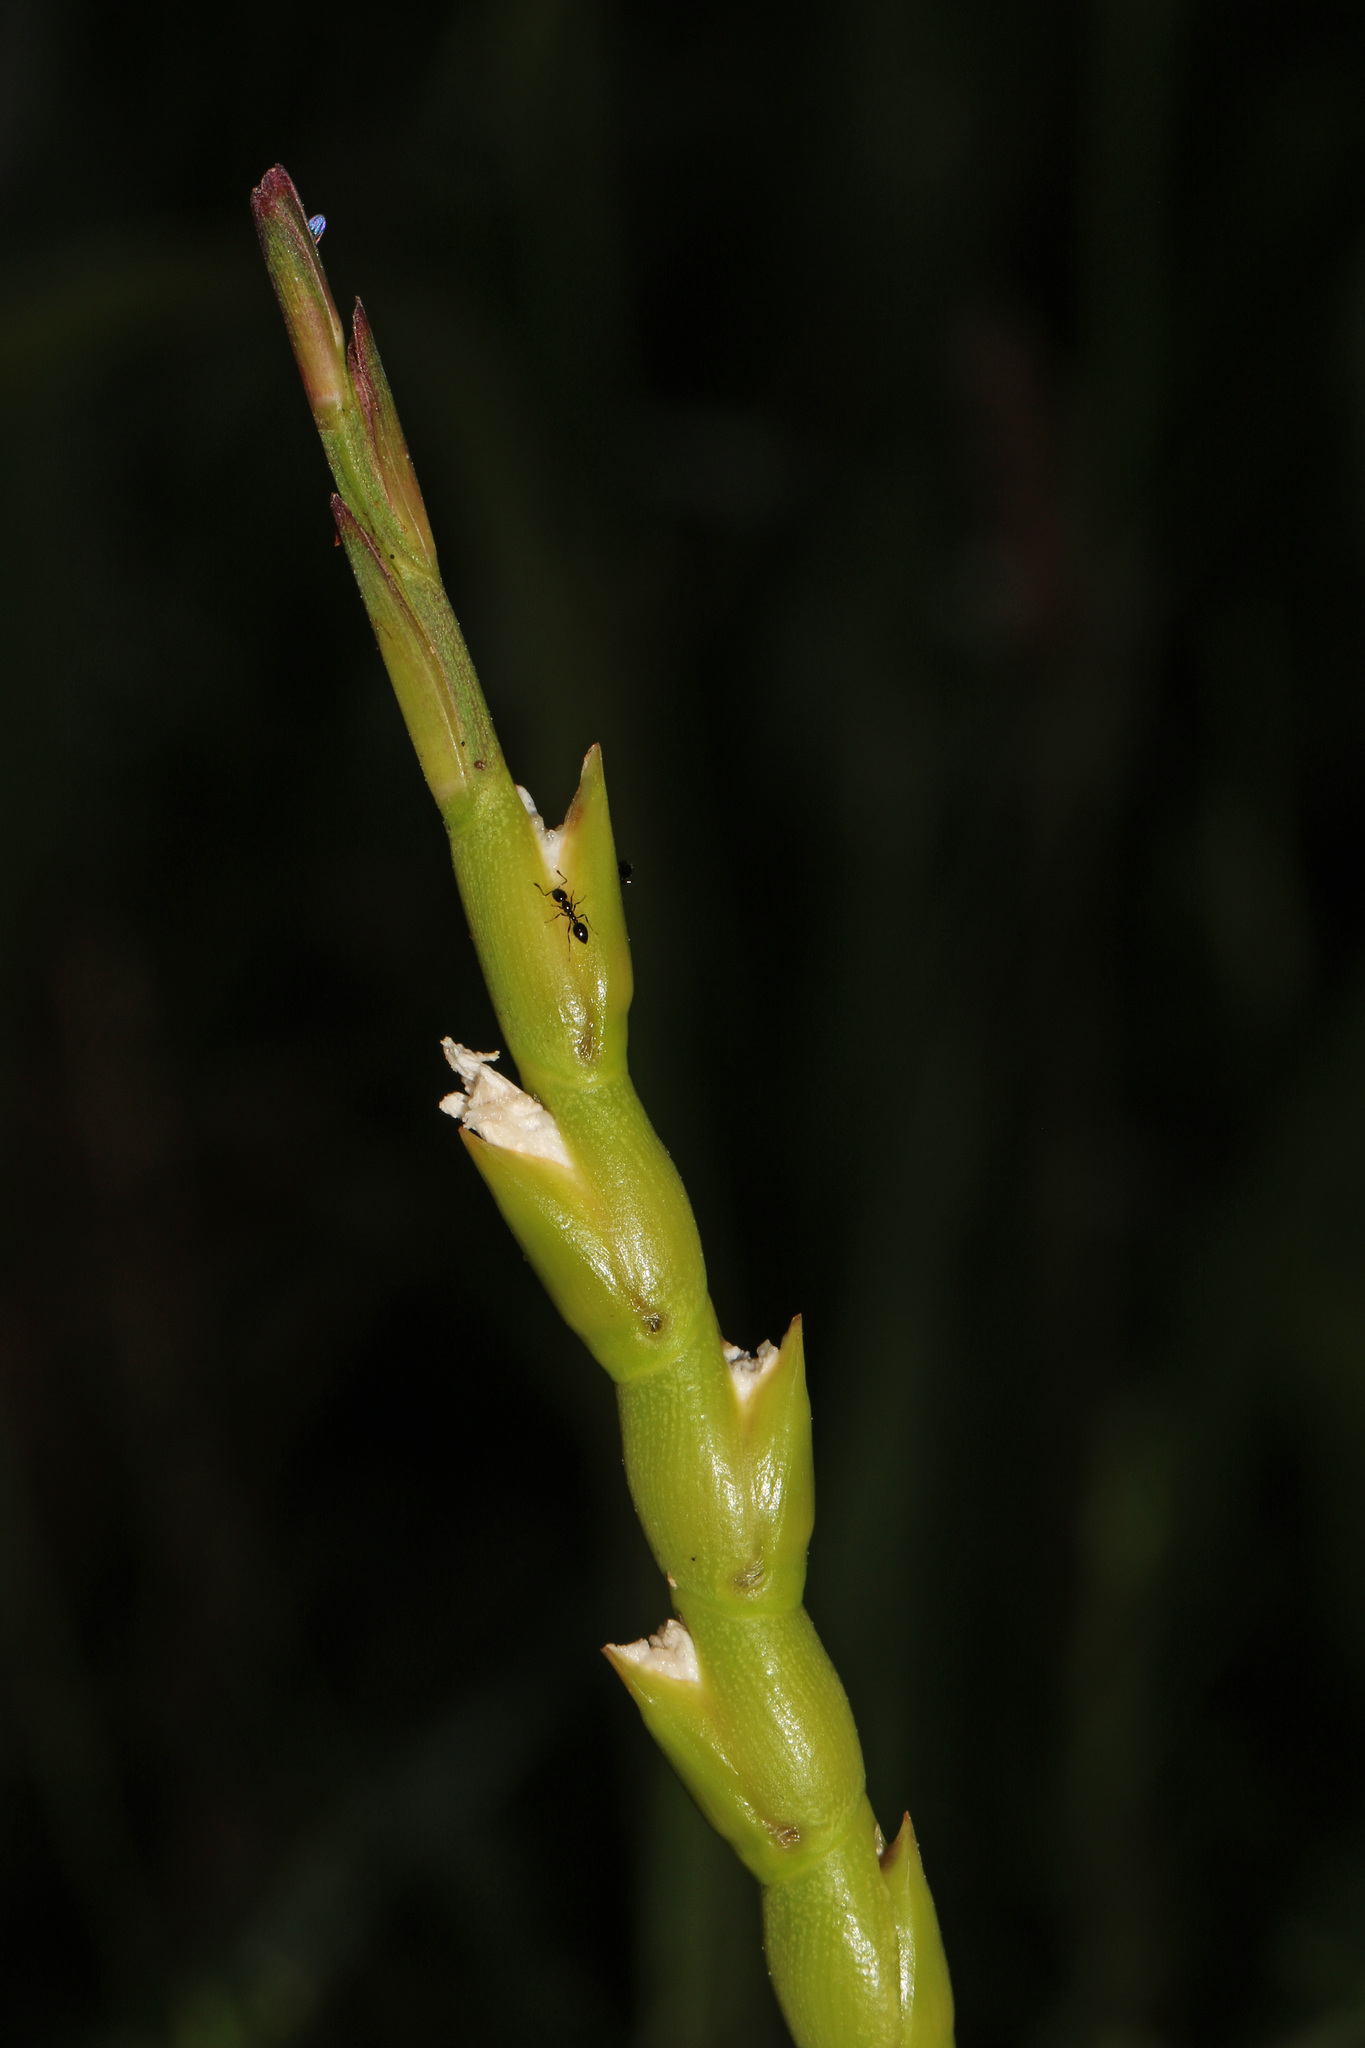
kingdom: Plantae
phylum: Tracheophyta
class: Liliopsida
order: Poales
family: Poaceae
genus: Tripsacum
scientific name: Tripsacum dactyloides
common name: Buffalo-grass
